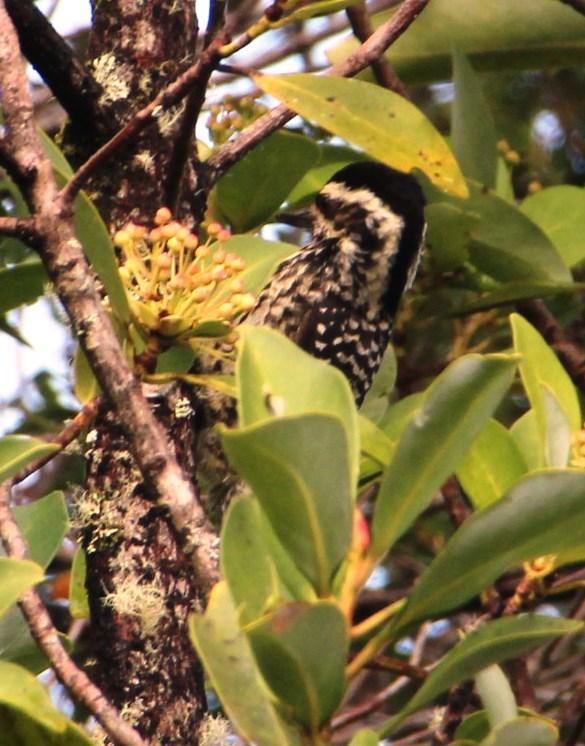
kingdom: Animalia
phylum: Chordata
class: Aves
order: Piciformes
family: Picidae
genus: Veniliornis
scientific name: Veniliornis lignarius
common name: Striped woodpecker
